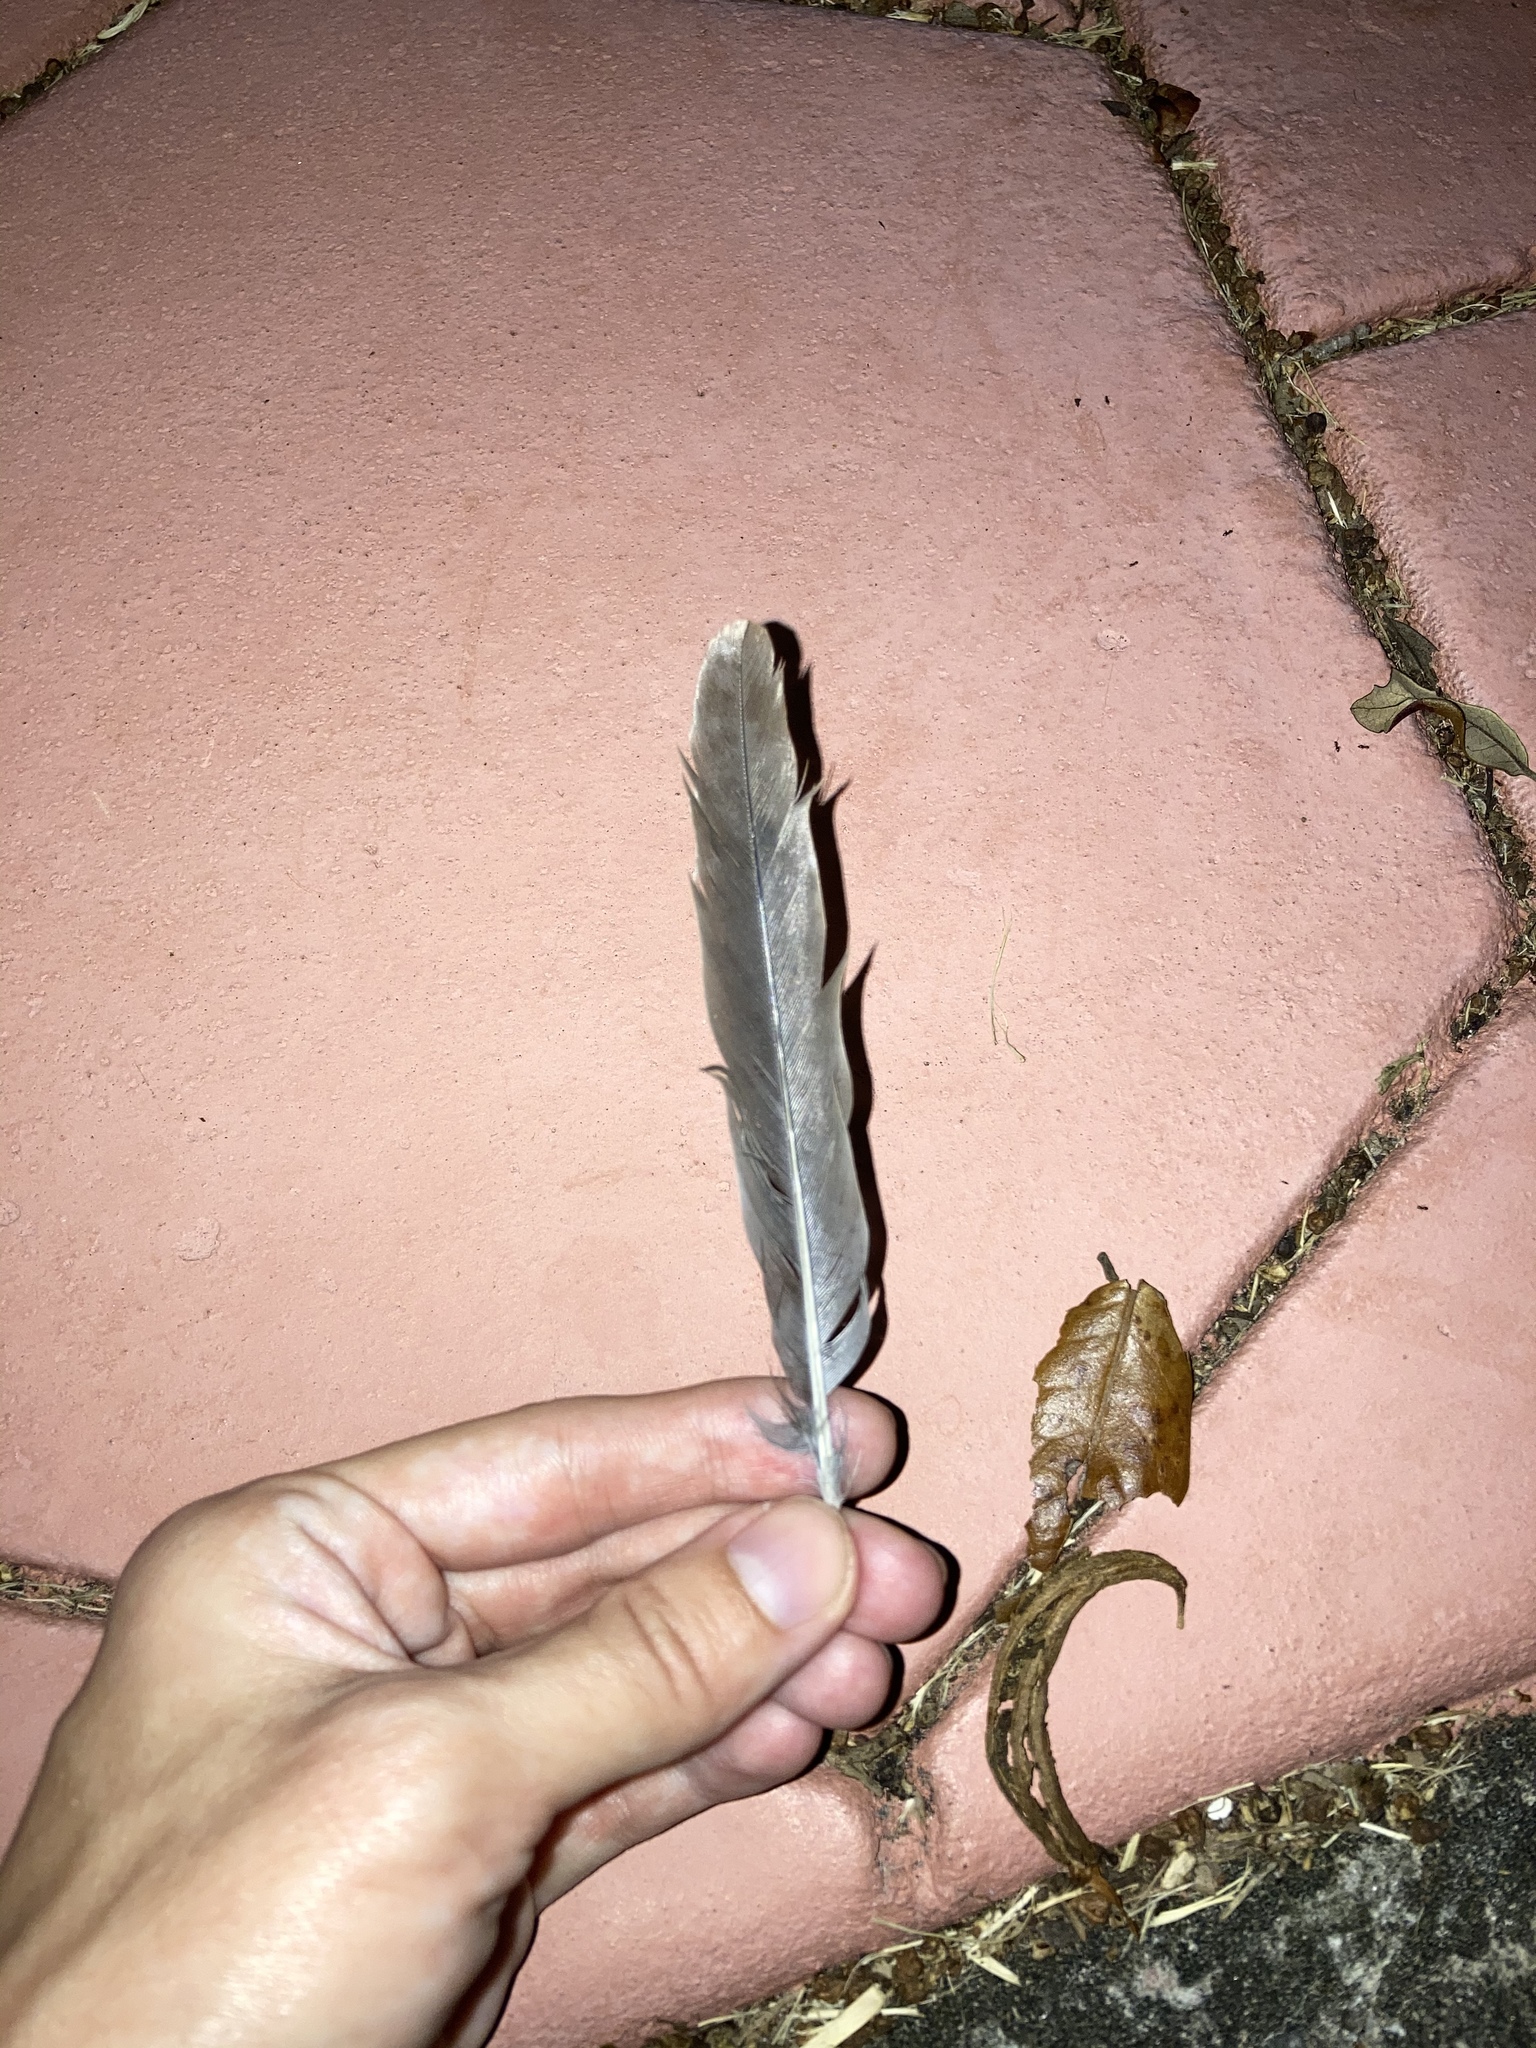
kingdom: Animalia
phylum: Chordata
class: Aves
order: Columbiformes
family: Columbidae
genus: Zenaida
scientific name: Zenaida macroura
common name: Mourning dove
